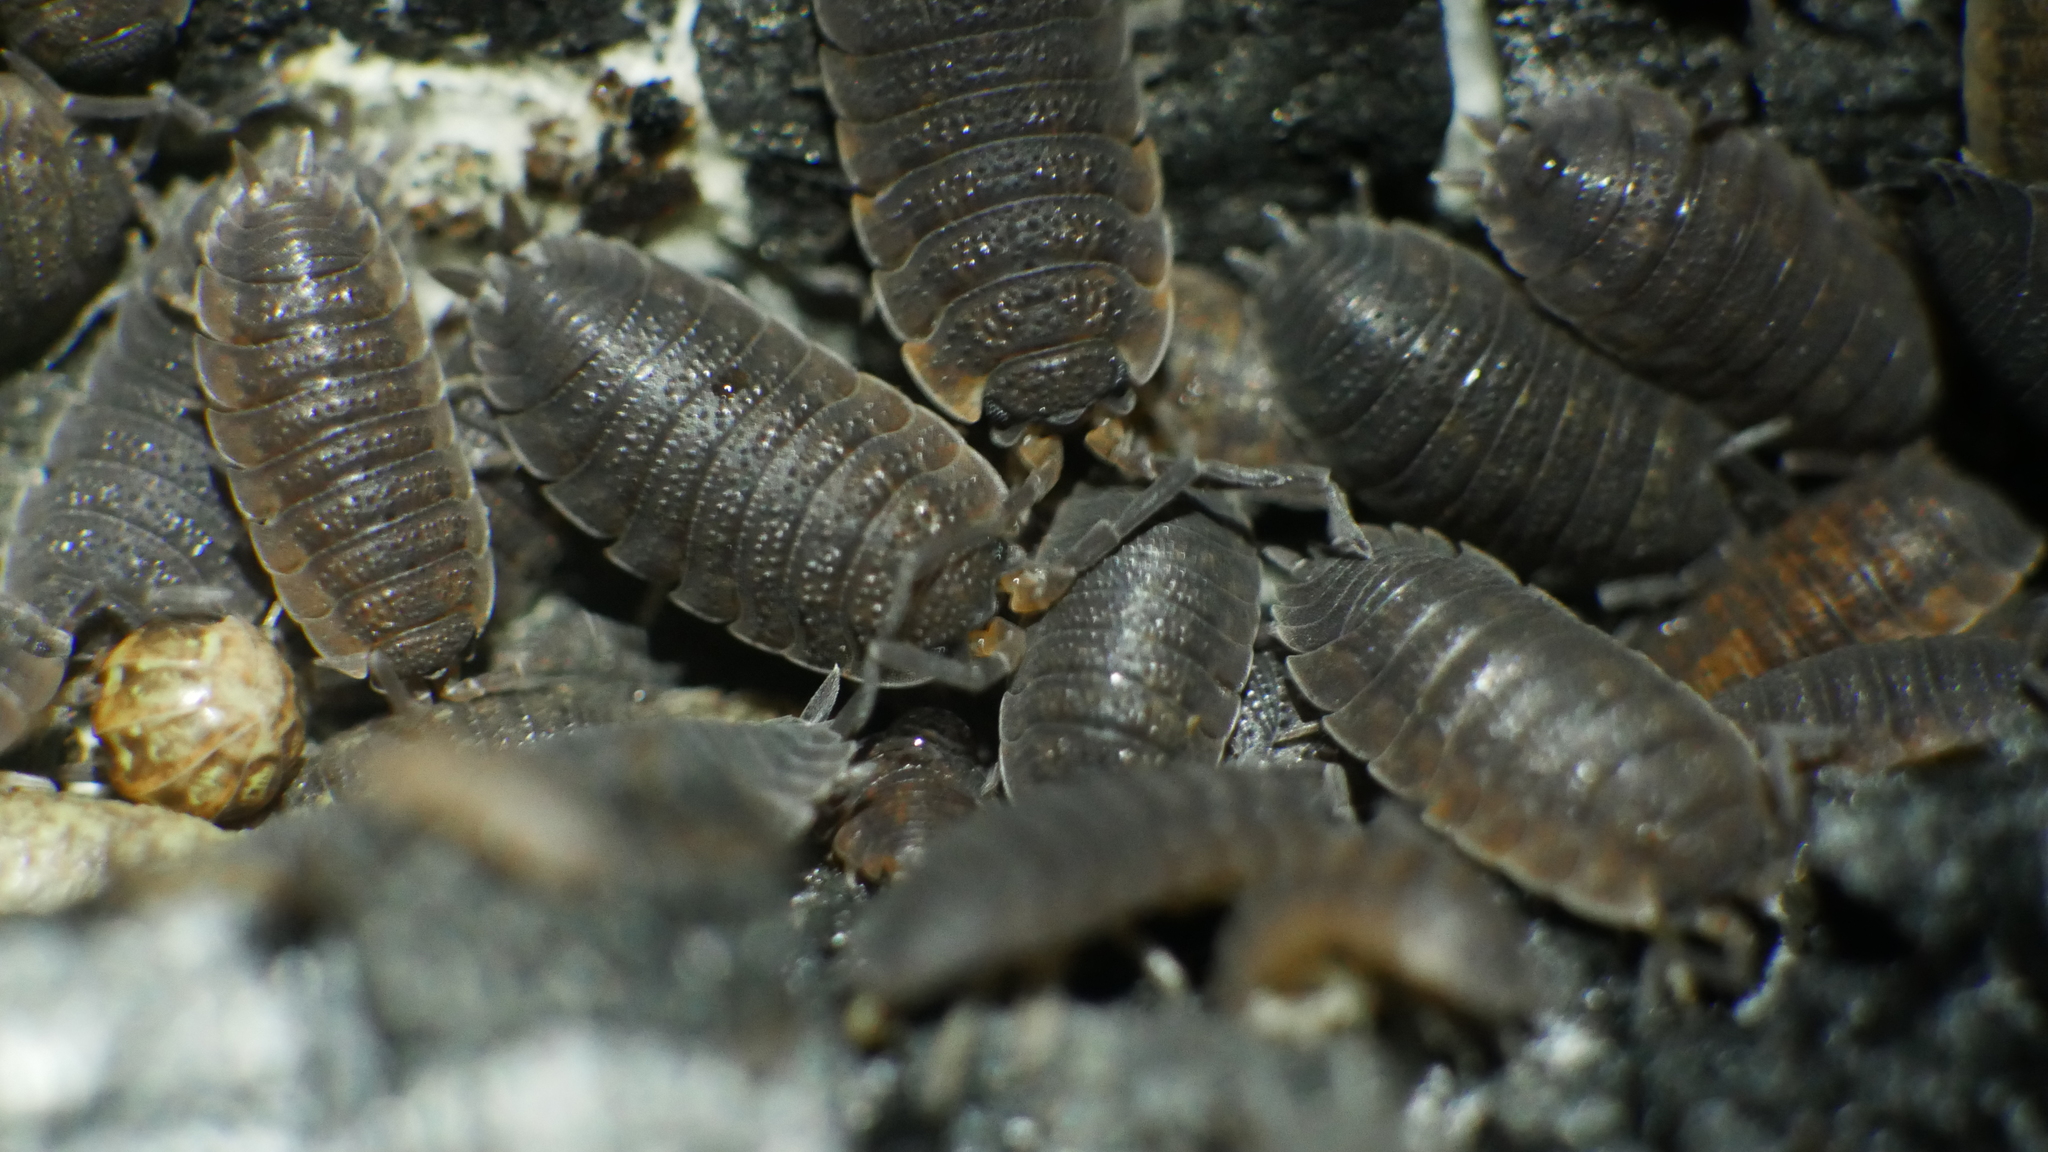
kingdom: Animalia
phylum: Arthropoda
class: Malacostraca
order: Isopoda
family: Porcellionidae
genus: Porcellio
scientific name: Porcellio scaber
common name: Common rough woodlouse
